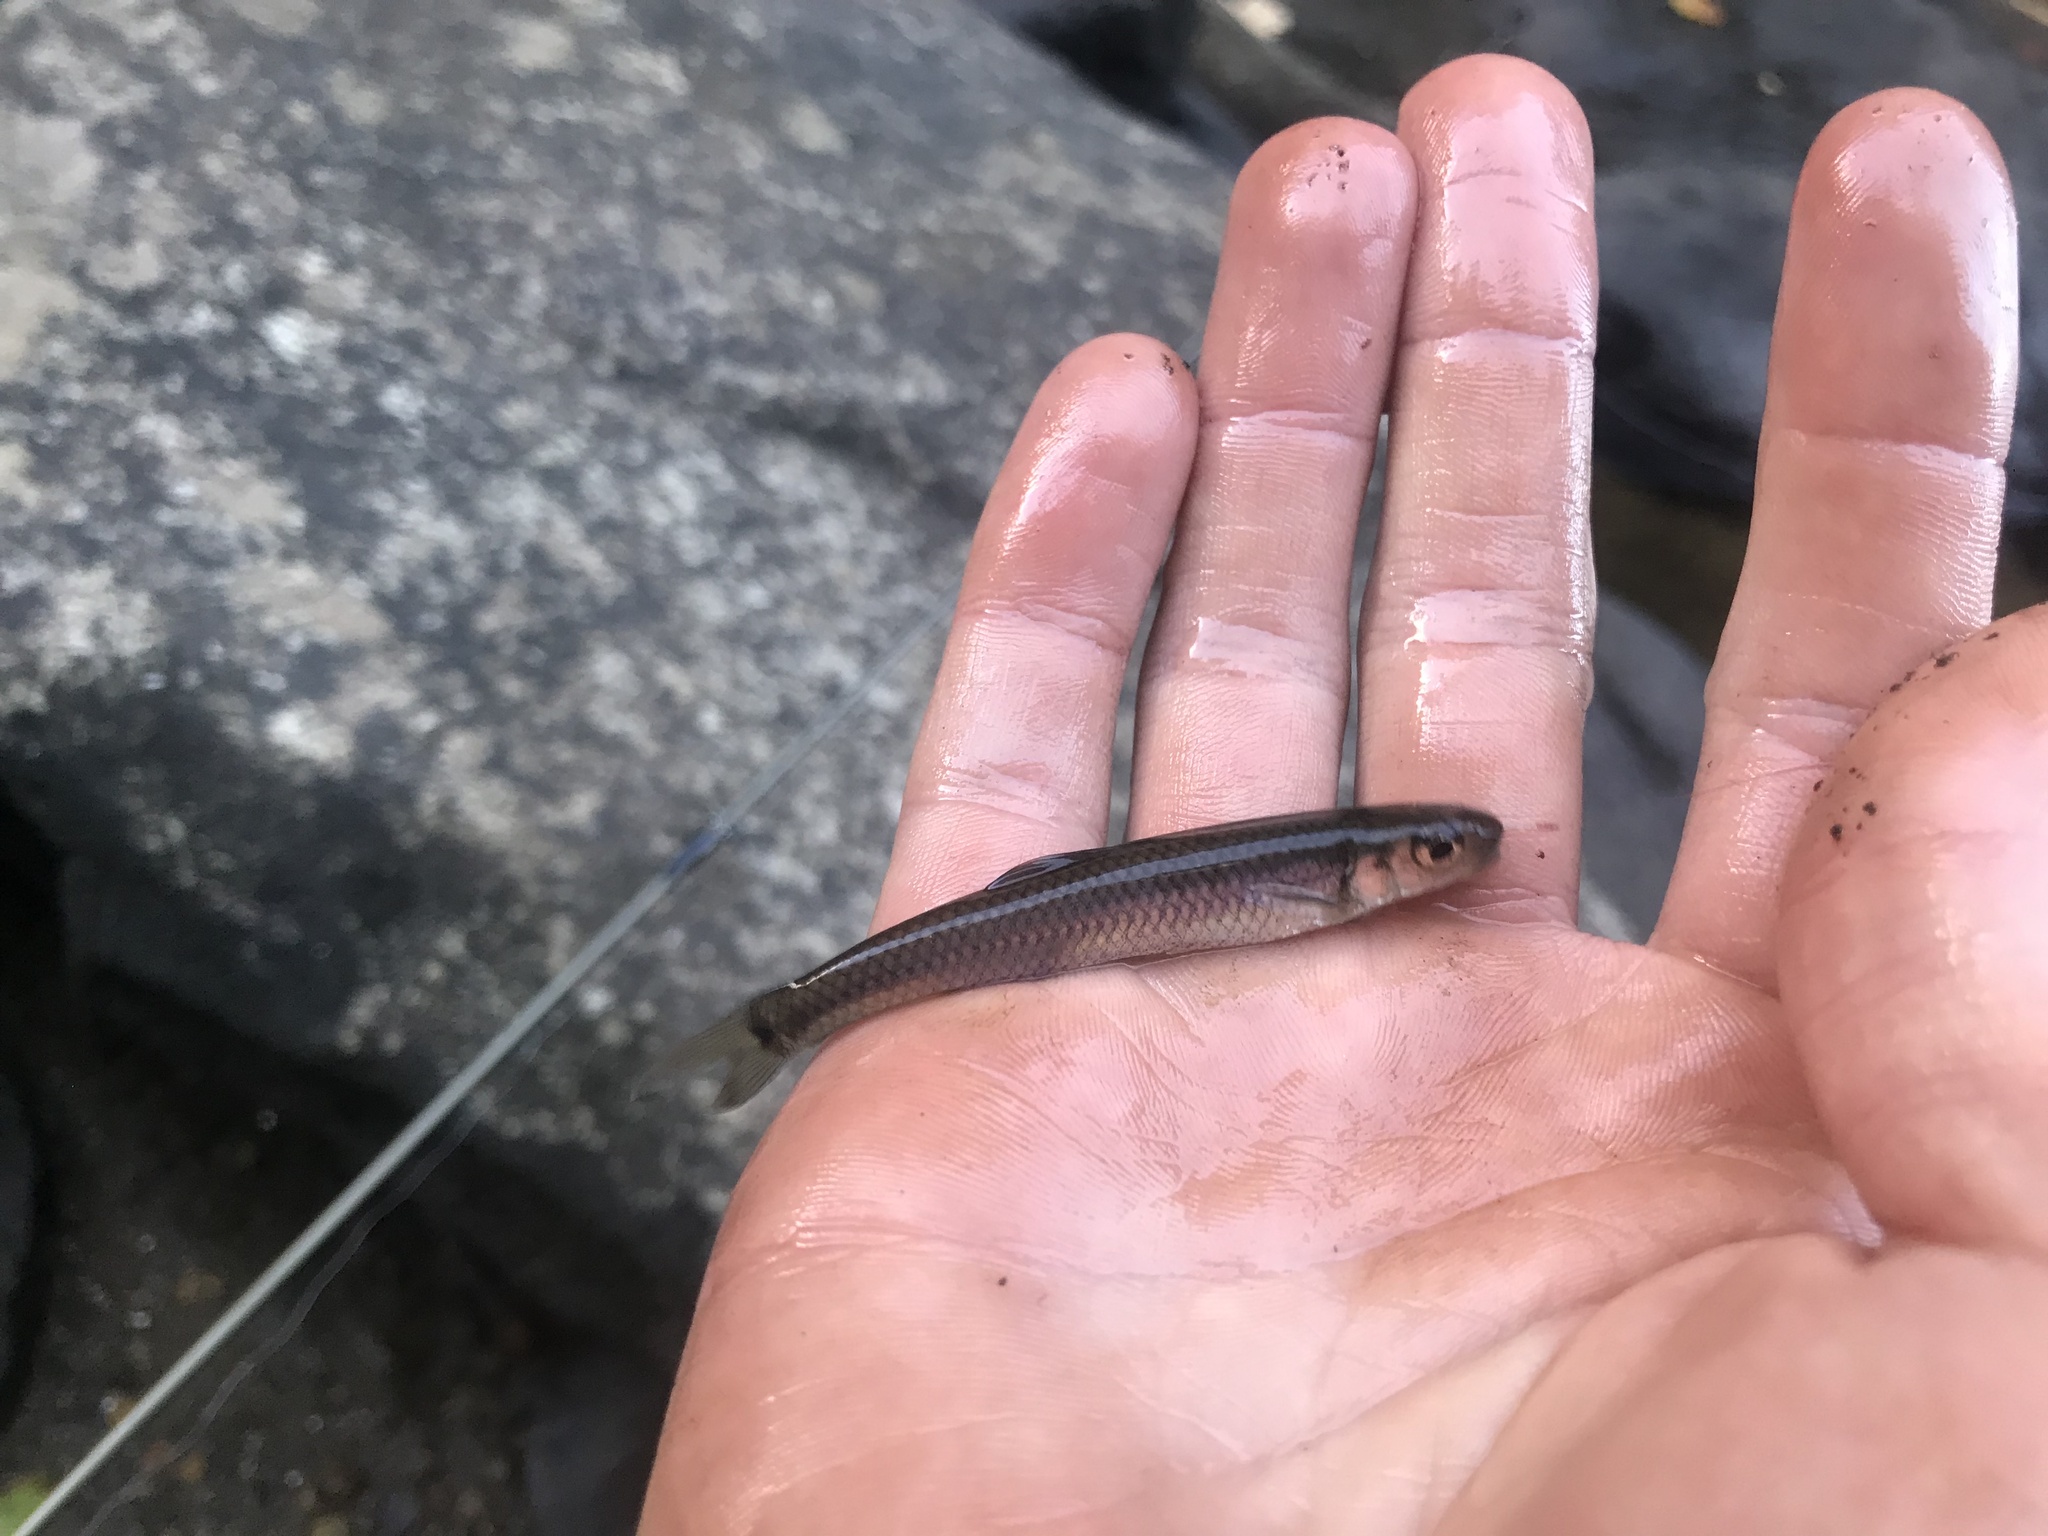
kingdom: Animalia
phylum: Chordata
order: Cypriniformes
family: Cyprinidae
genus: Notropis
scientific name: Notropis
